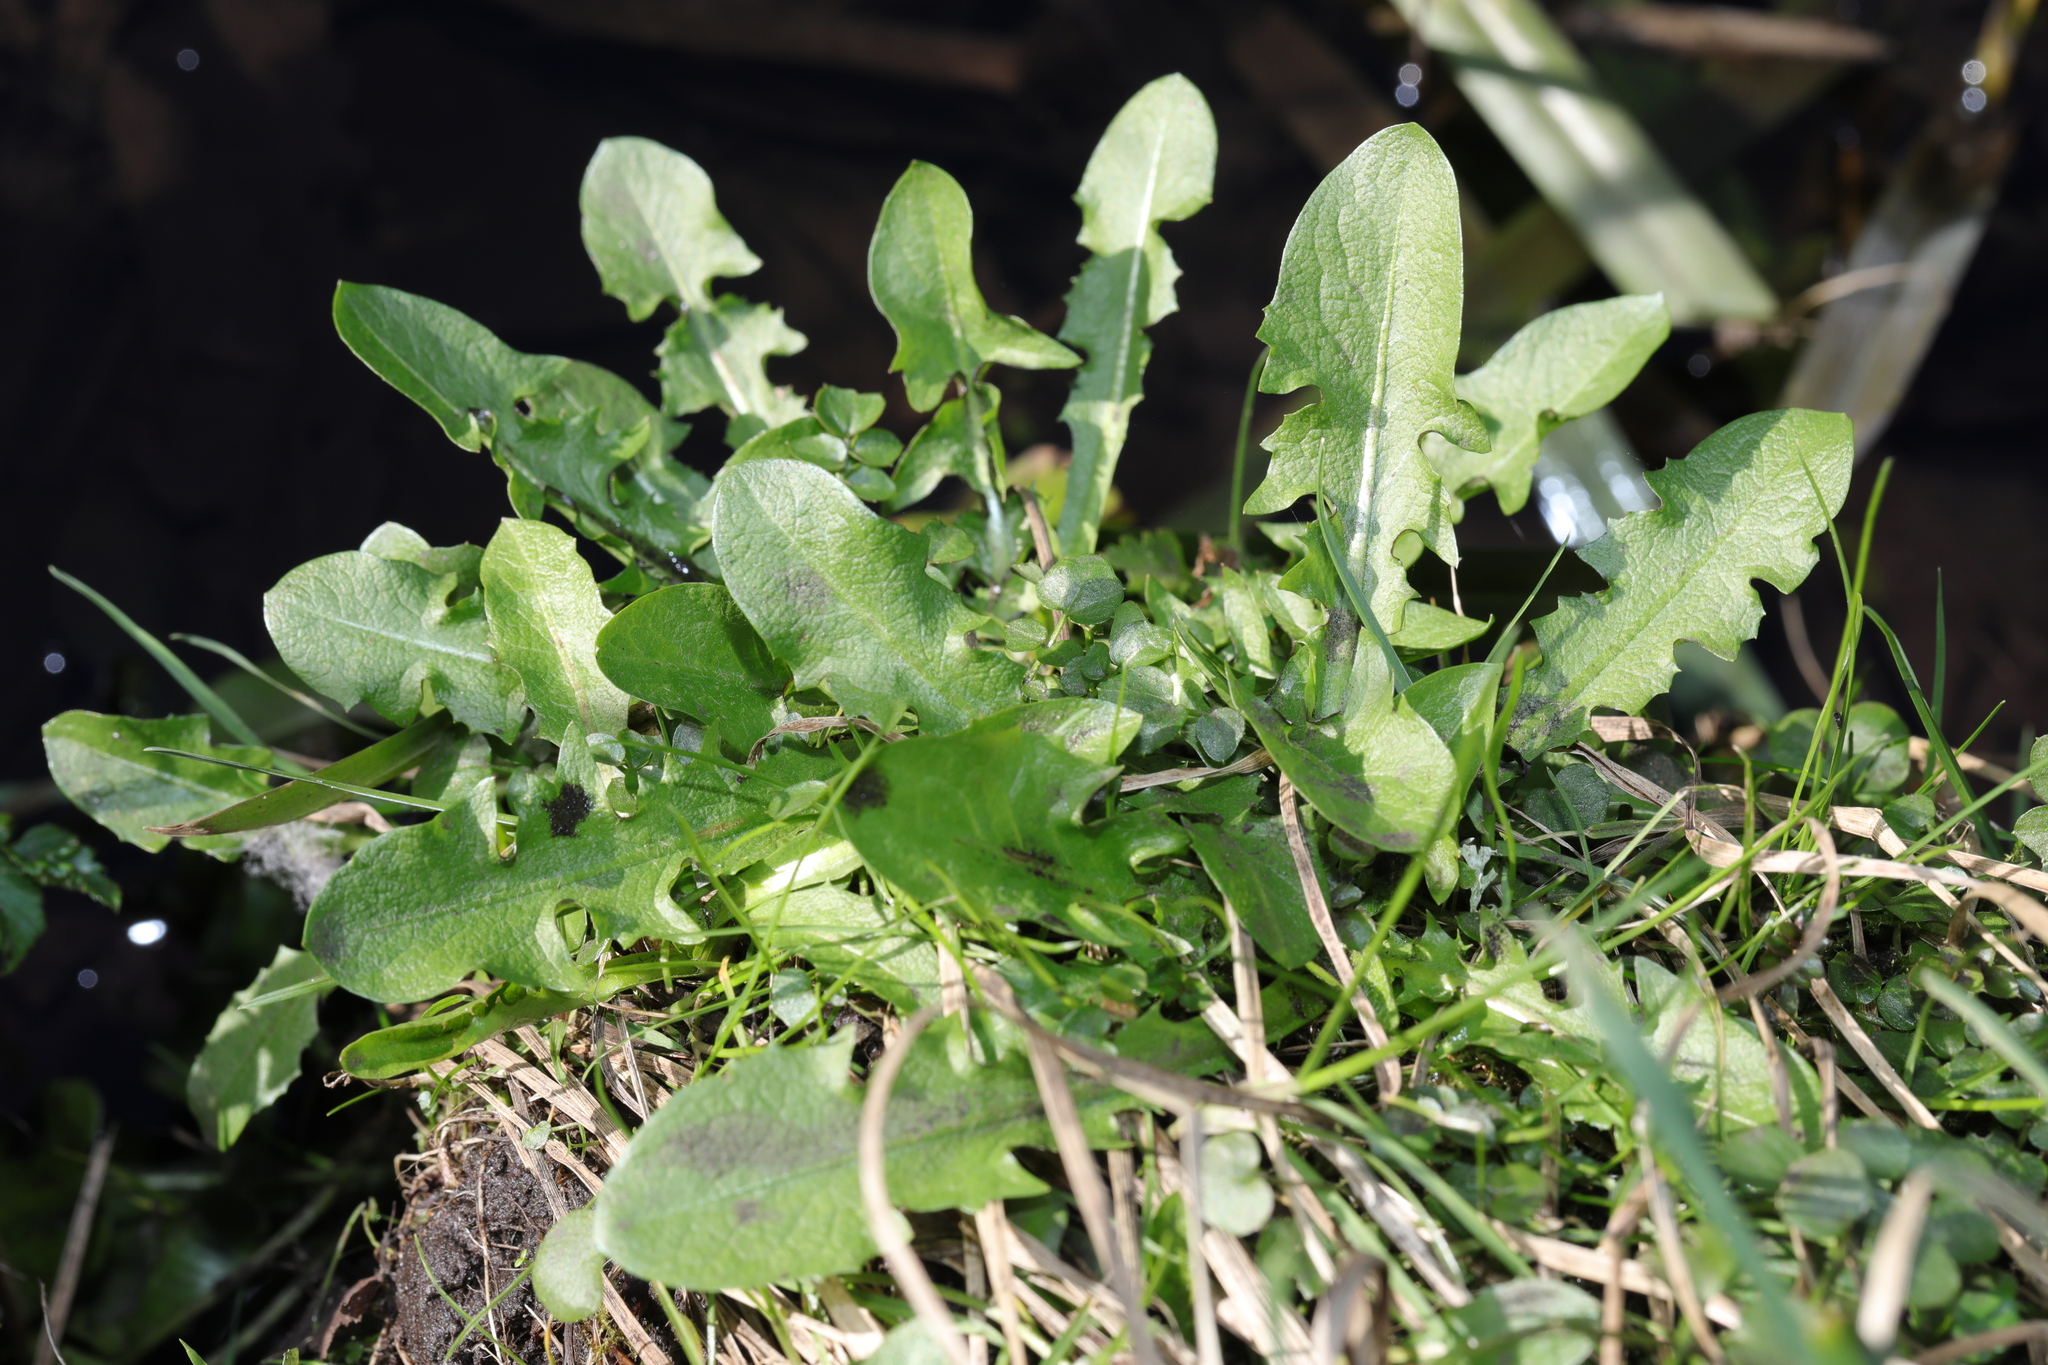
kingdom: Plantae
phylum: Tracheophyta
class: Magnoliopsida
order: Asterales
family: Asteraceae
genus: Taraxacum
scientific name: Taraxacum officinale
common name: Common dandelion
